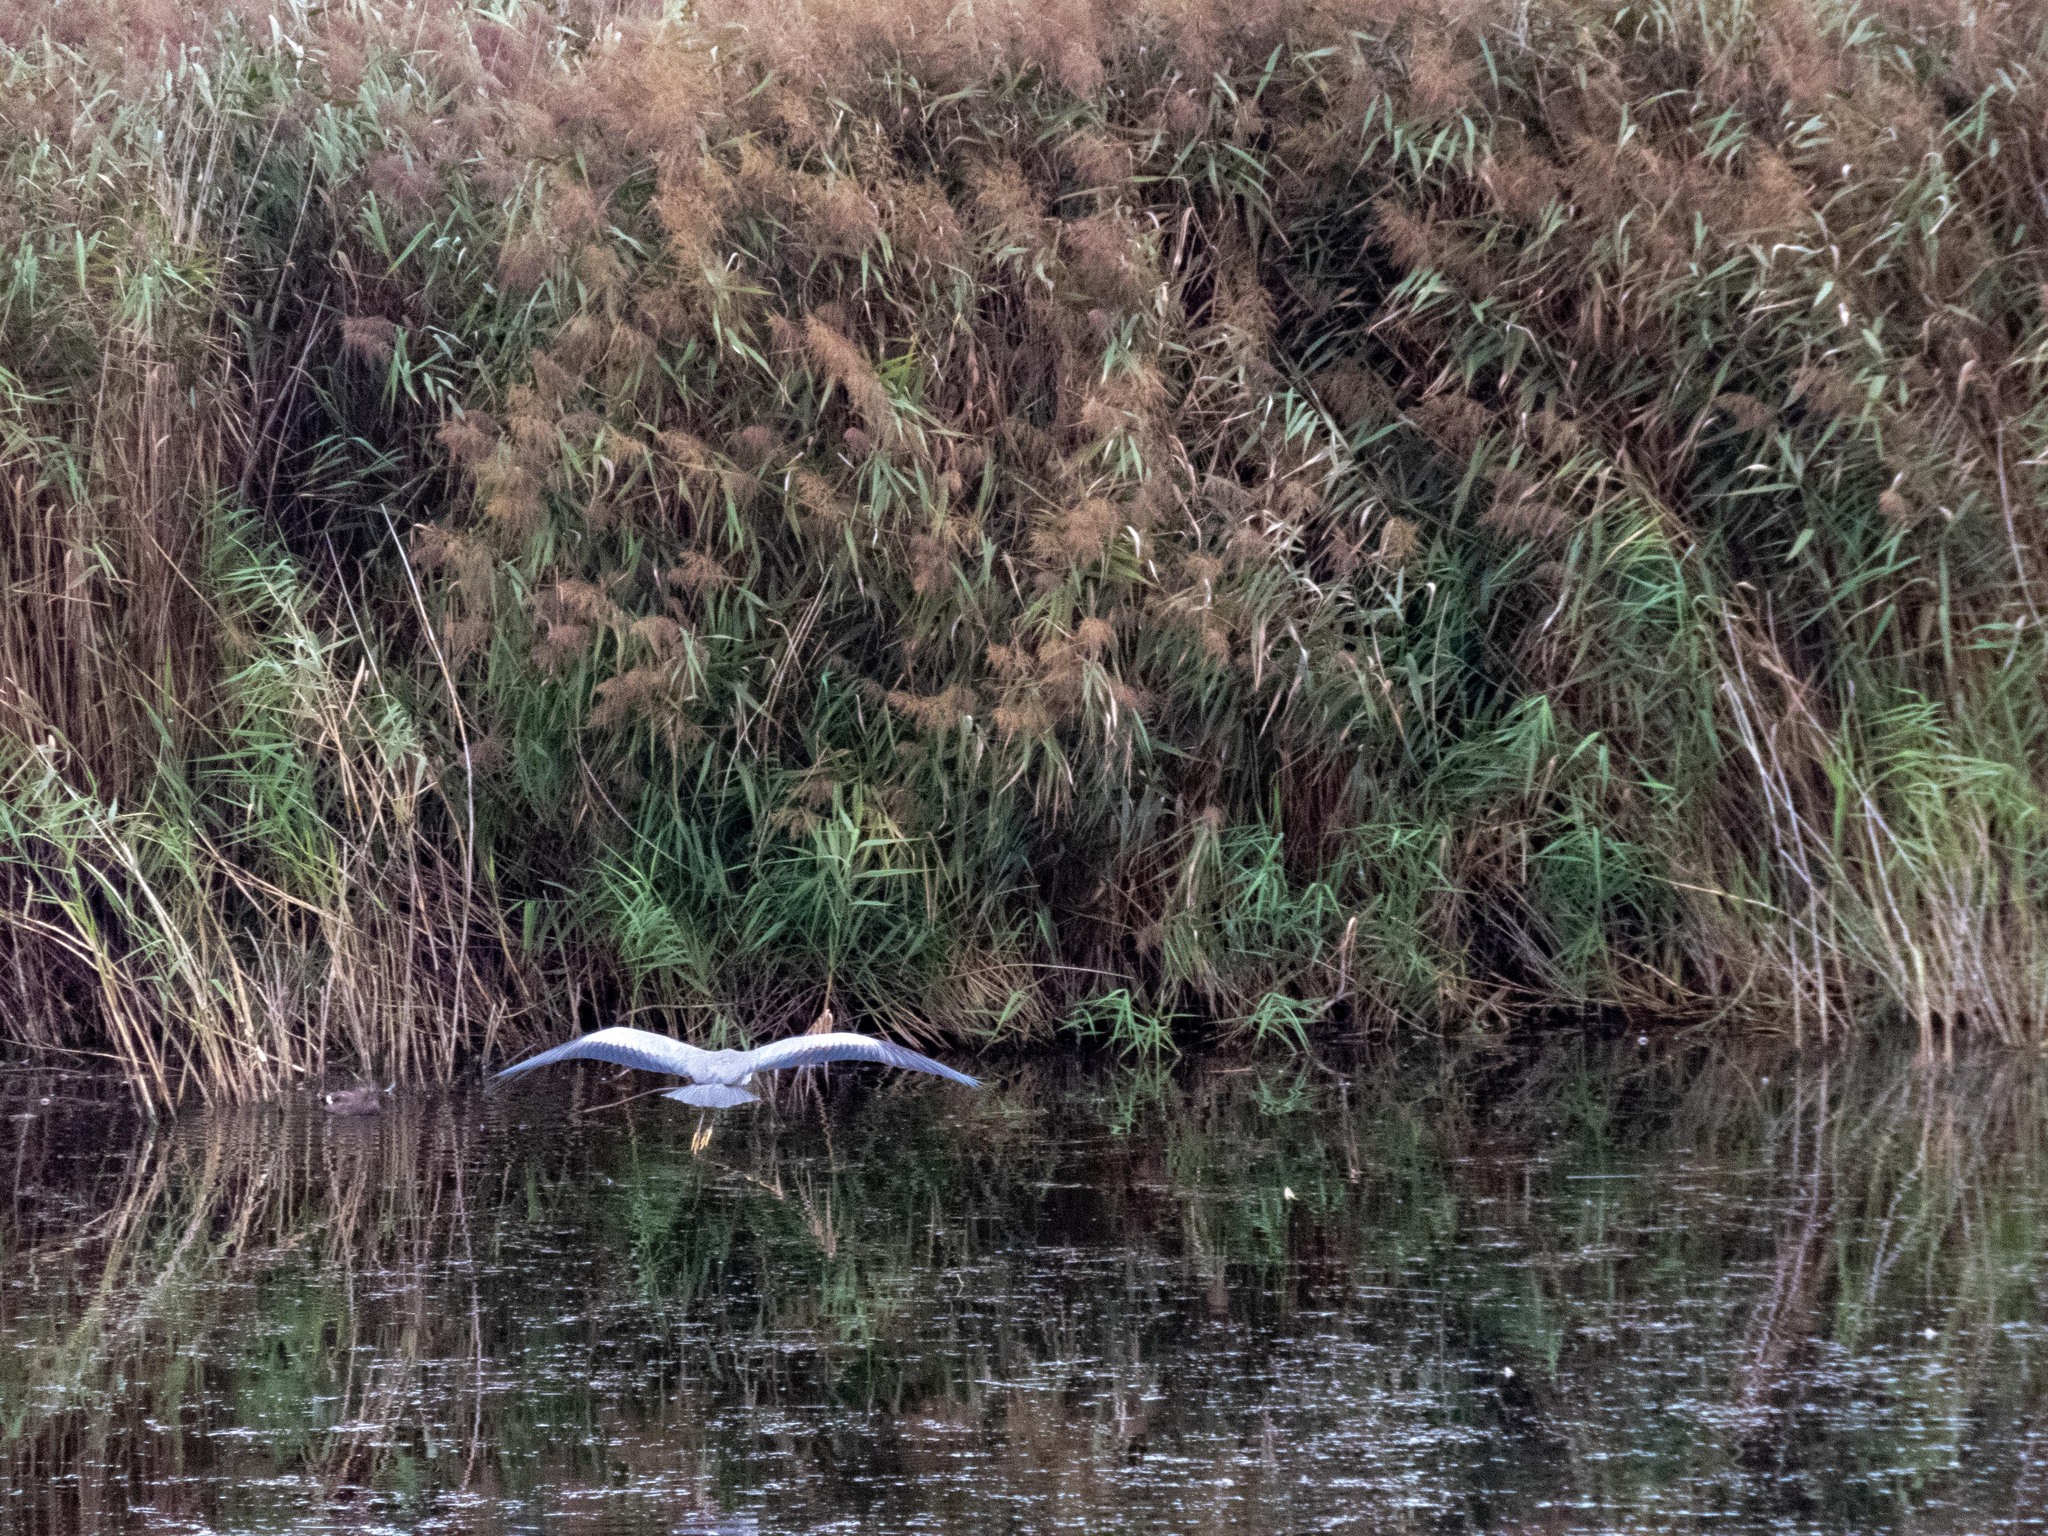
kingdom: Animalia
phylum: Chordata
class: Aves
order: Pelecaniformes
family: Ardeidae
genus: Ardea
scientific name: Ardea cinerea
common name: Grey heron
